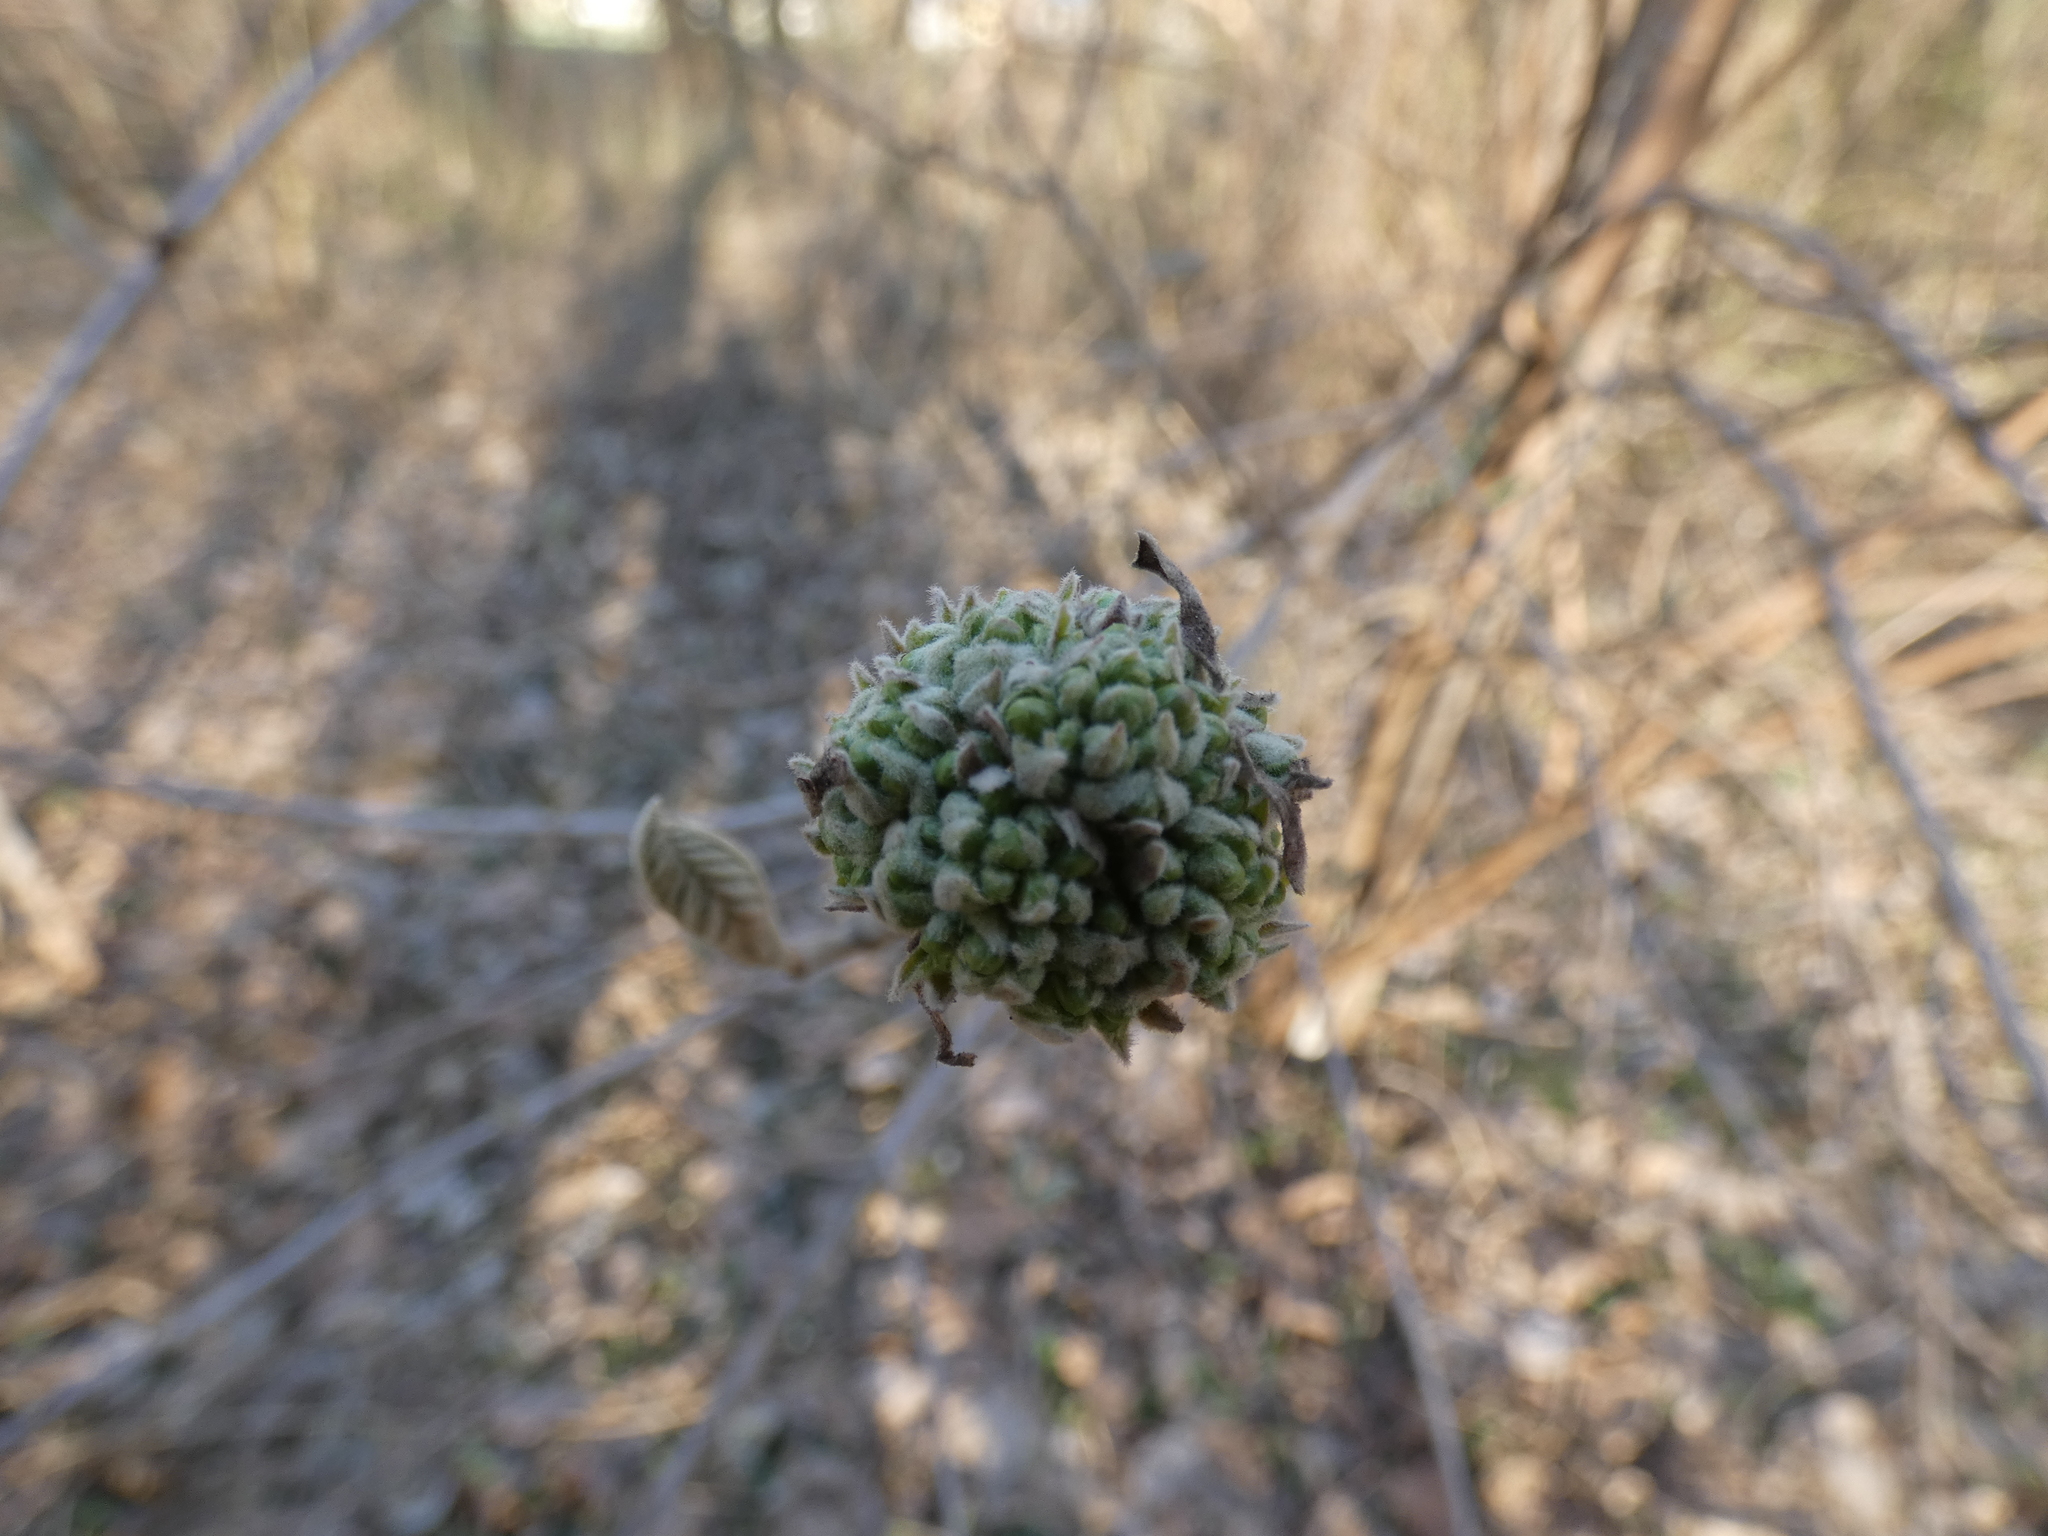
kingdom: Plantae
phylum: Tracheophyta
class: Magnoliopsida
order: Dipsacales
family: Viburnaceae
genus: Viburnum
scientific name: Viburnum lantana
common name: Wayfaring tree
